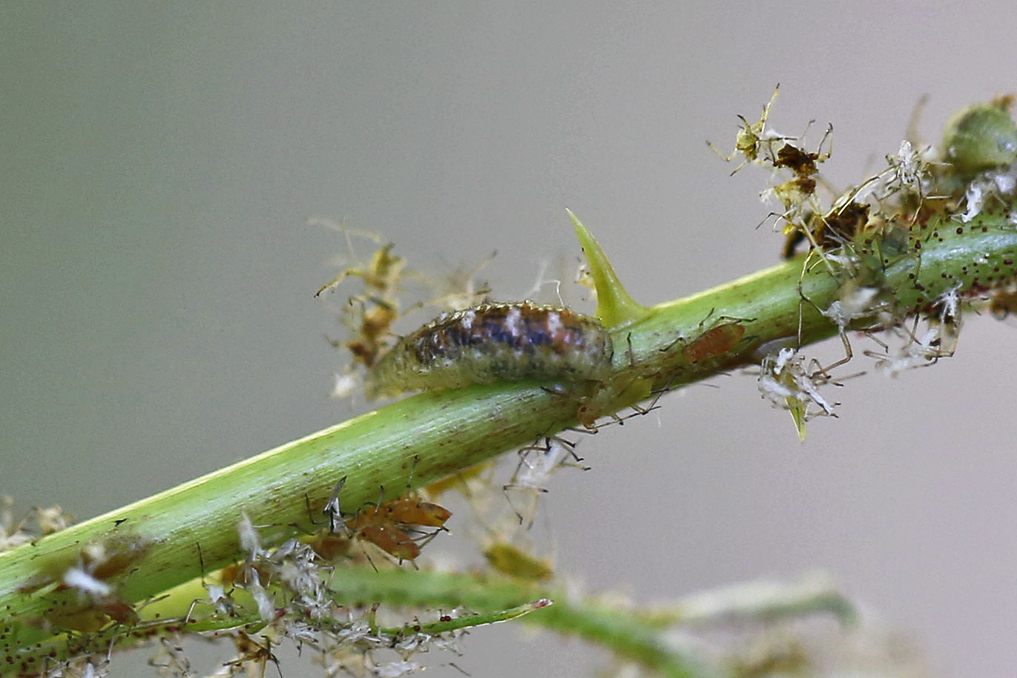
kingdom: Animalia
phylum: Arthropoda
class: Insecta
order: Diptera
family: Syrphidae
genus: Eupeodes
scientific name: Eupeodes pomus
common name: Short-tailed aphideater
